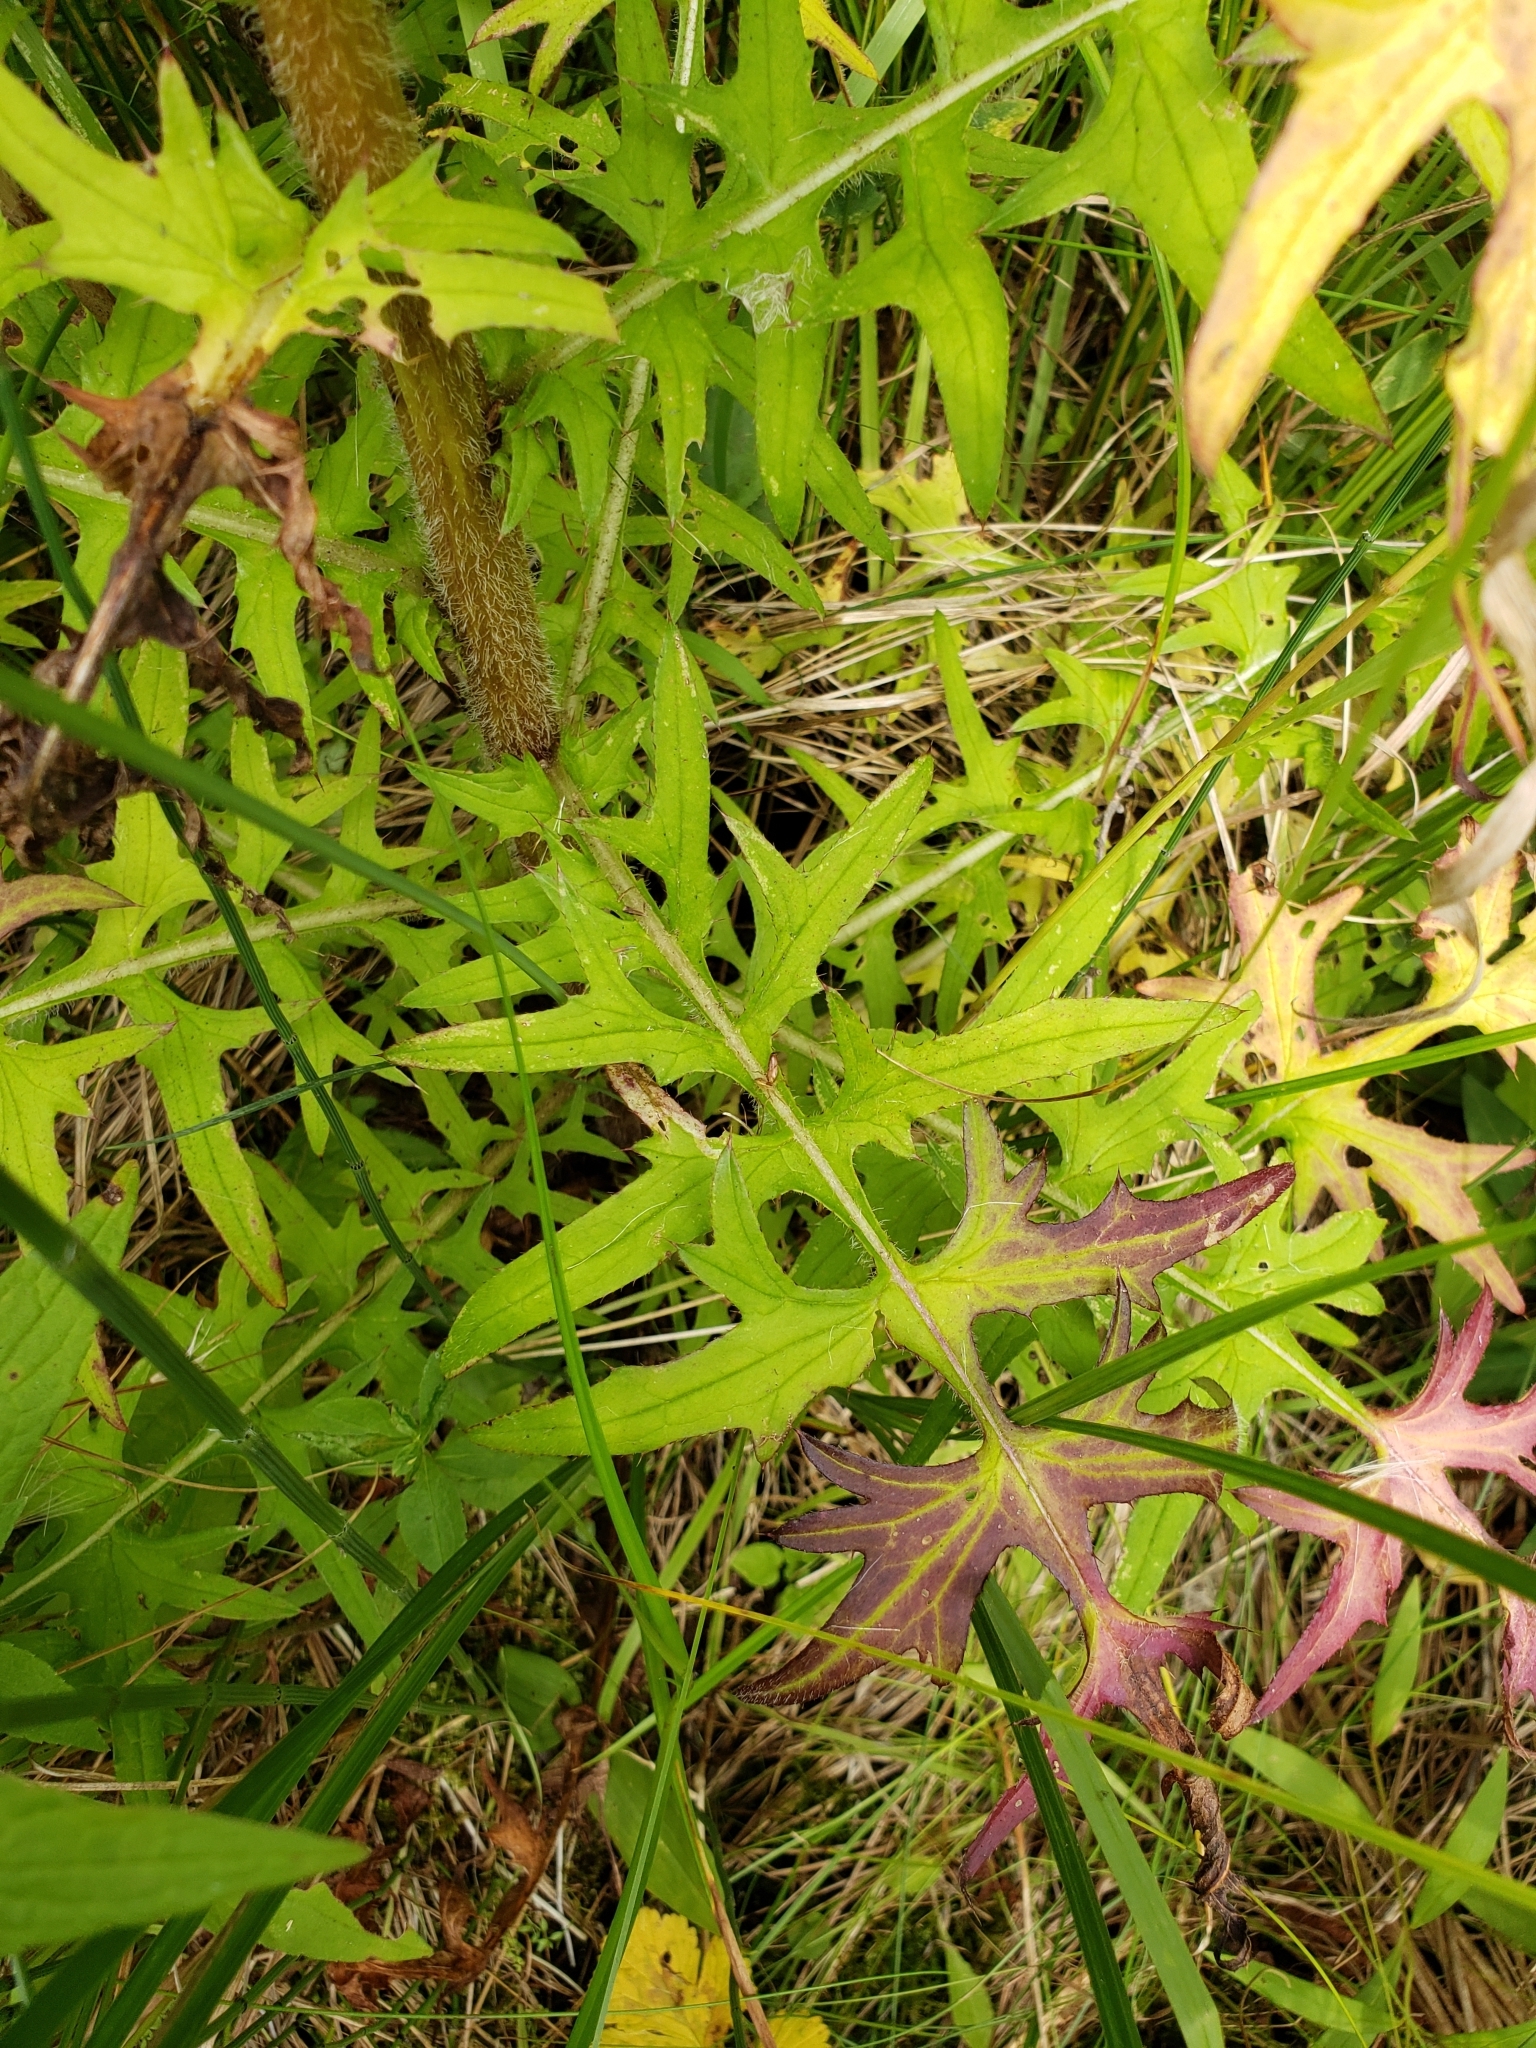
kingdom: Plantae
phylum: Tracheophyta
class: Magnoliopsida
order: Asterales
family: Asteraceae
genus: Cirsium
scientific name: Cirsium muticum
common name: Dunce-nettle
